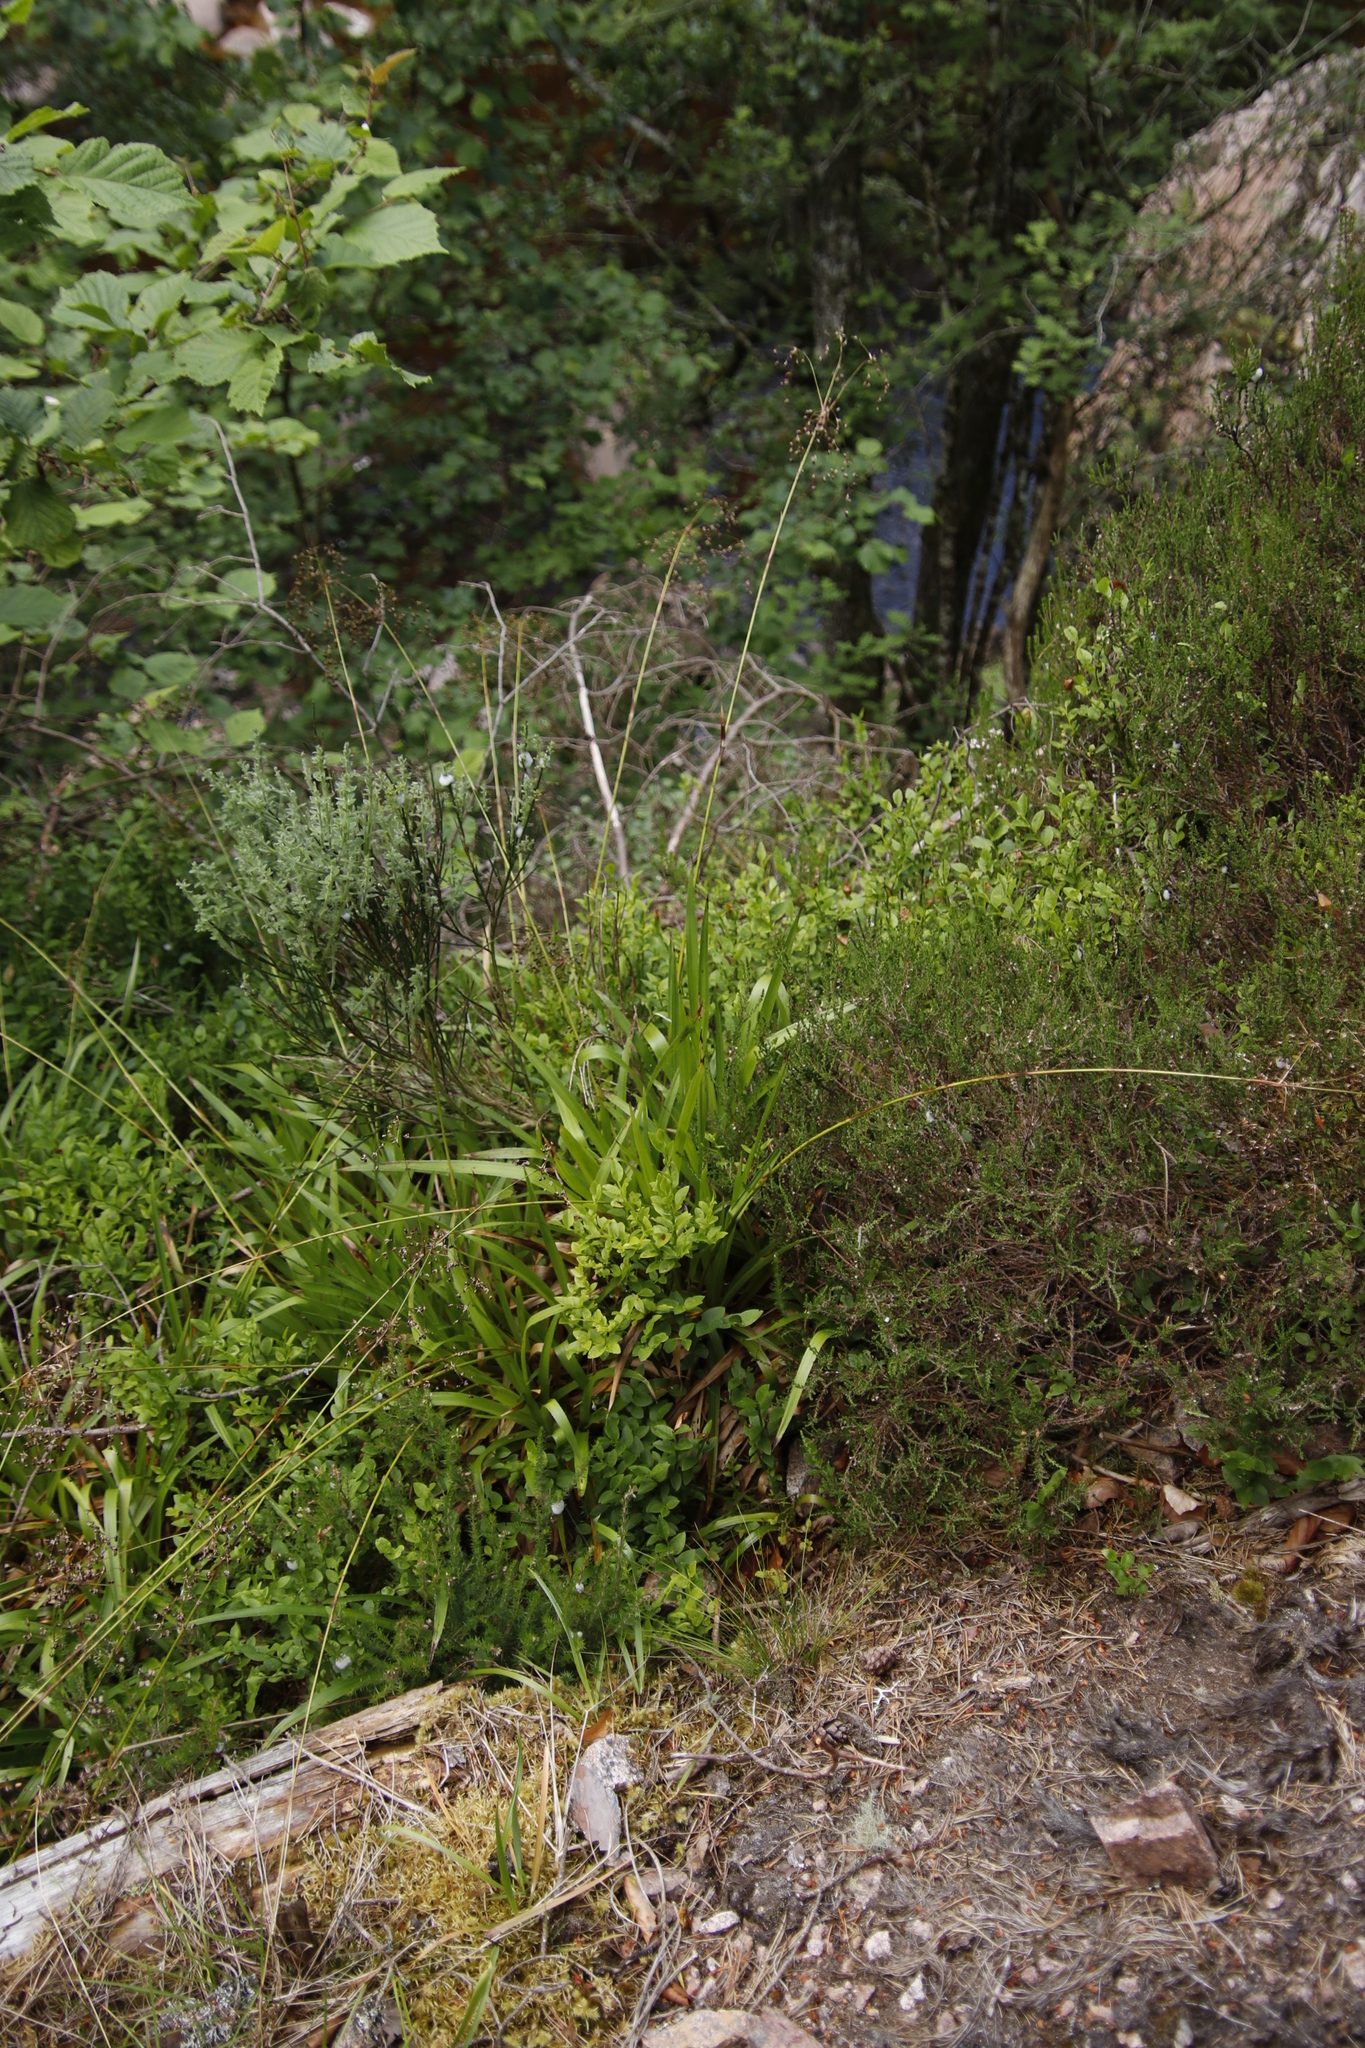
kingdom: Plantae
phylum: Tracheophyta
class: Liliopsida
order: Poales
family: Juncaceae
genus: Luzula
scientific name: Luzula sylvatica
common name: Great wood-rush
